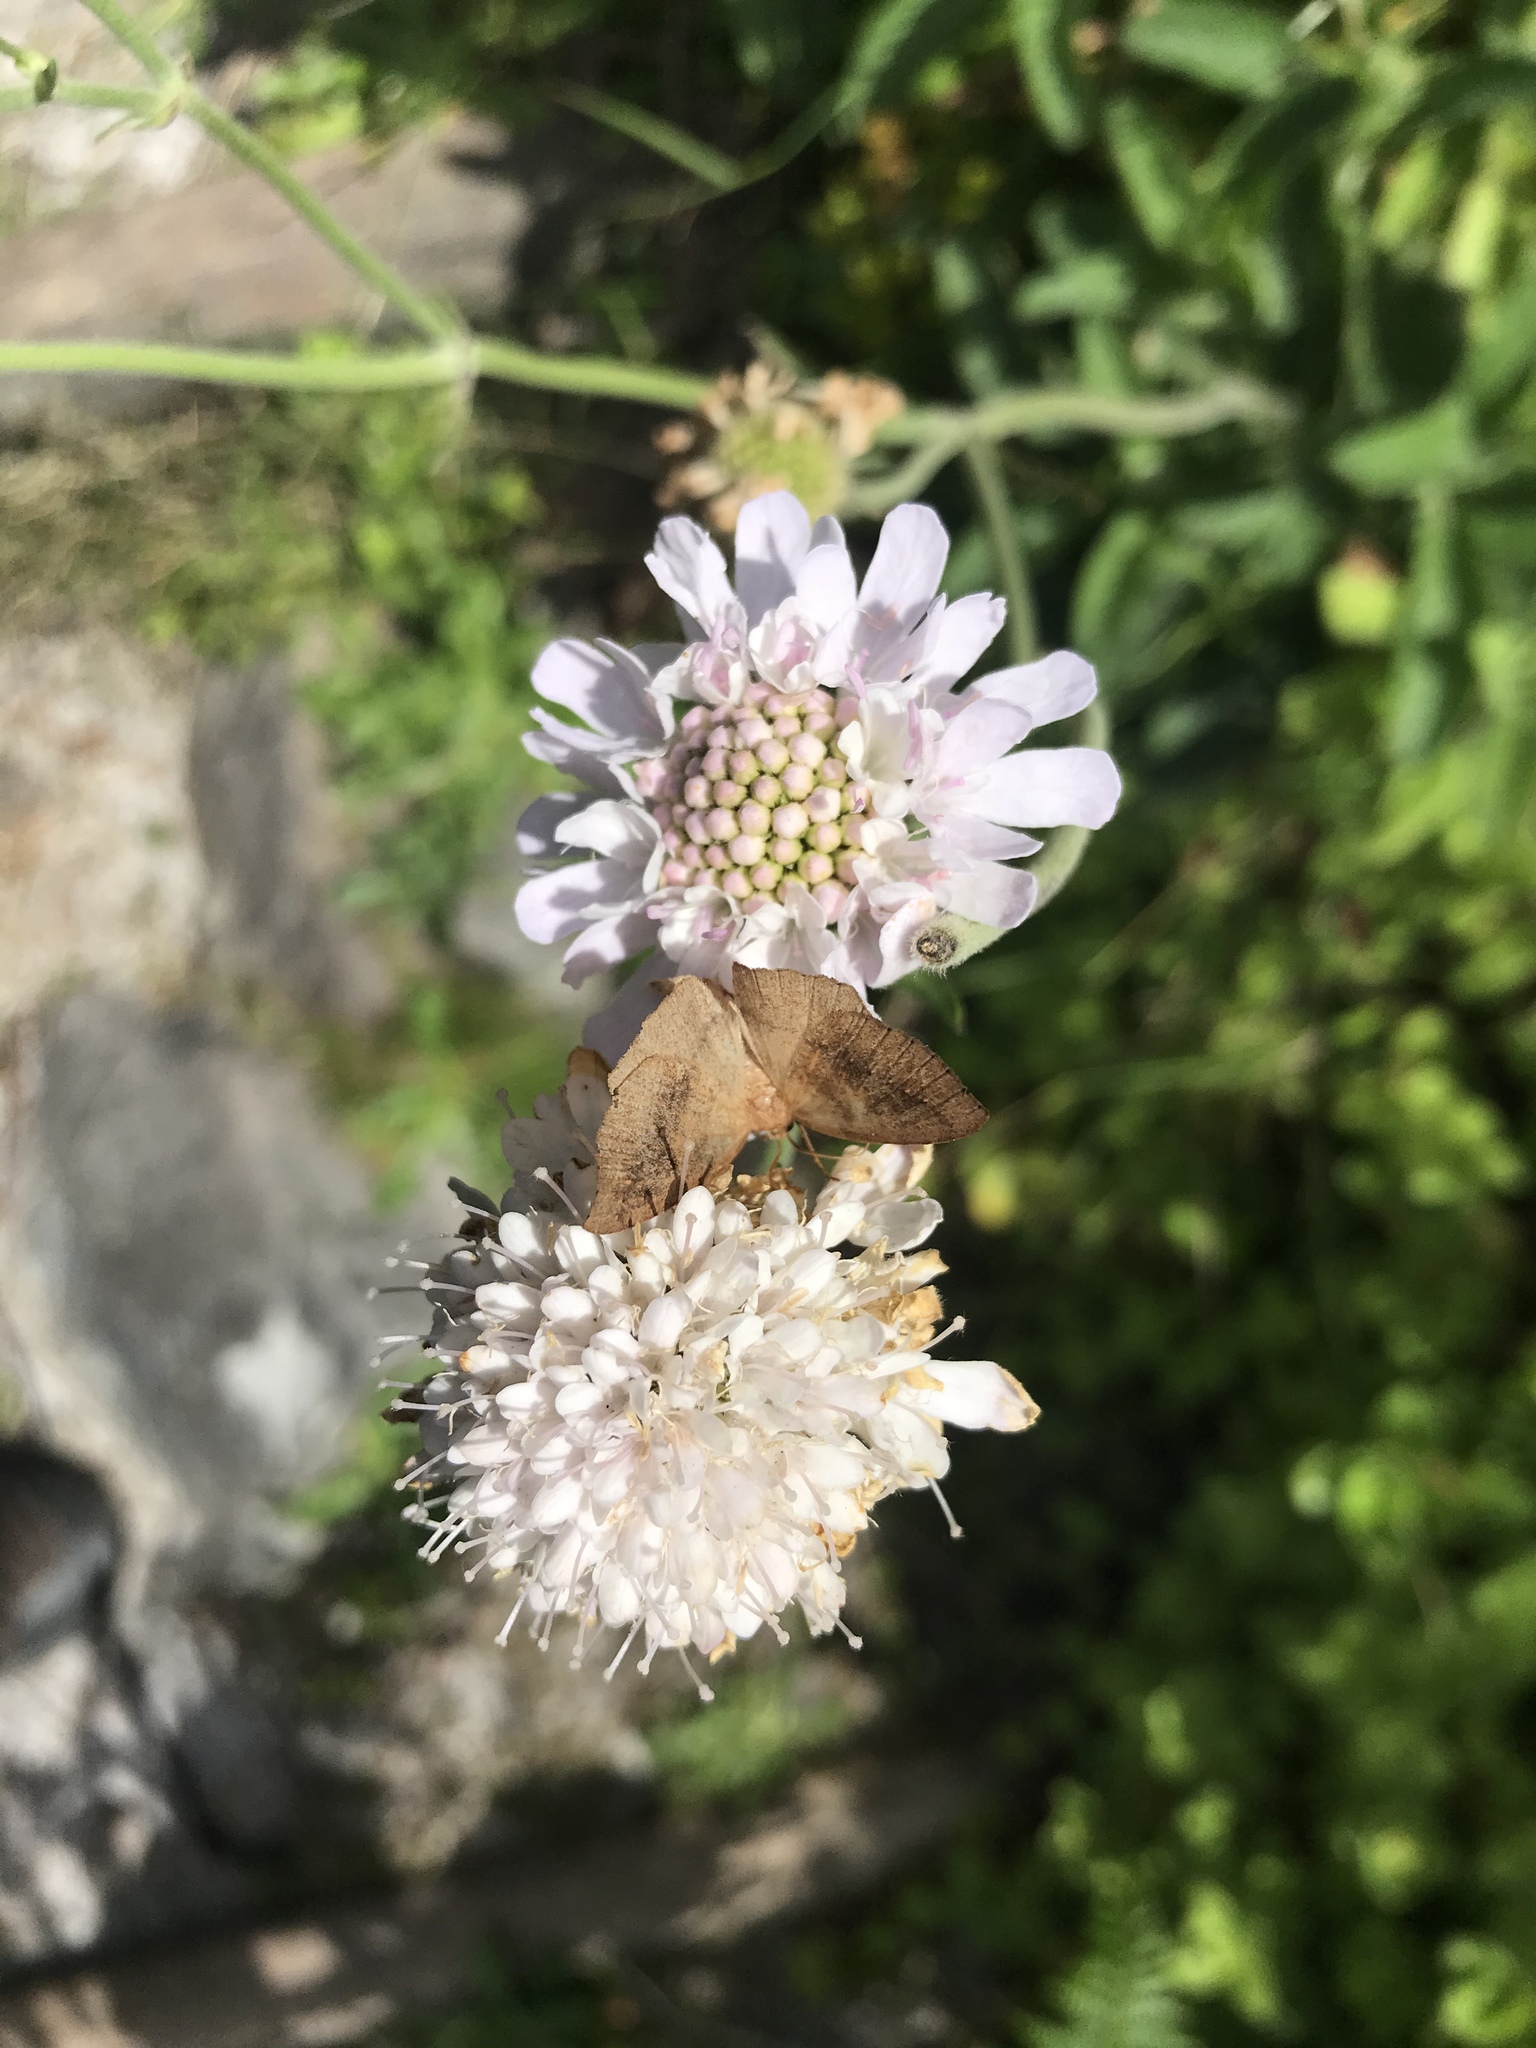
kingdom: Plantae
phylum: Tracheophyta
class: Magnoliopsida
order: Dipsacales
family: Caprifoliaceae
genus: Scabiosa
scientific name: Scabiosa africana
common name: Cape scabious
